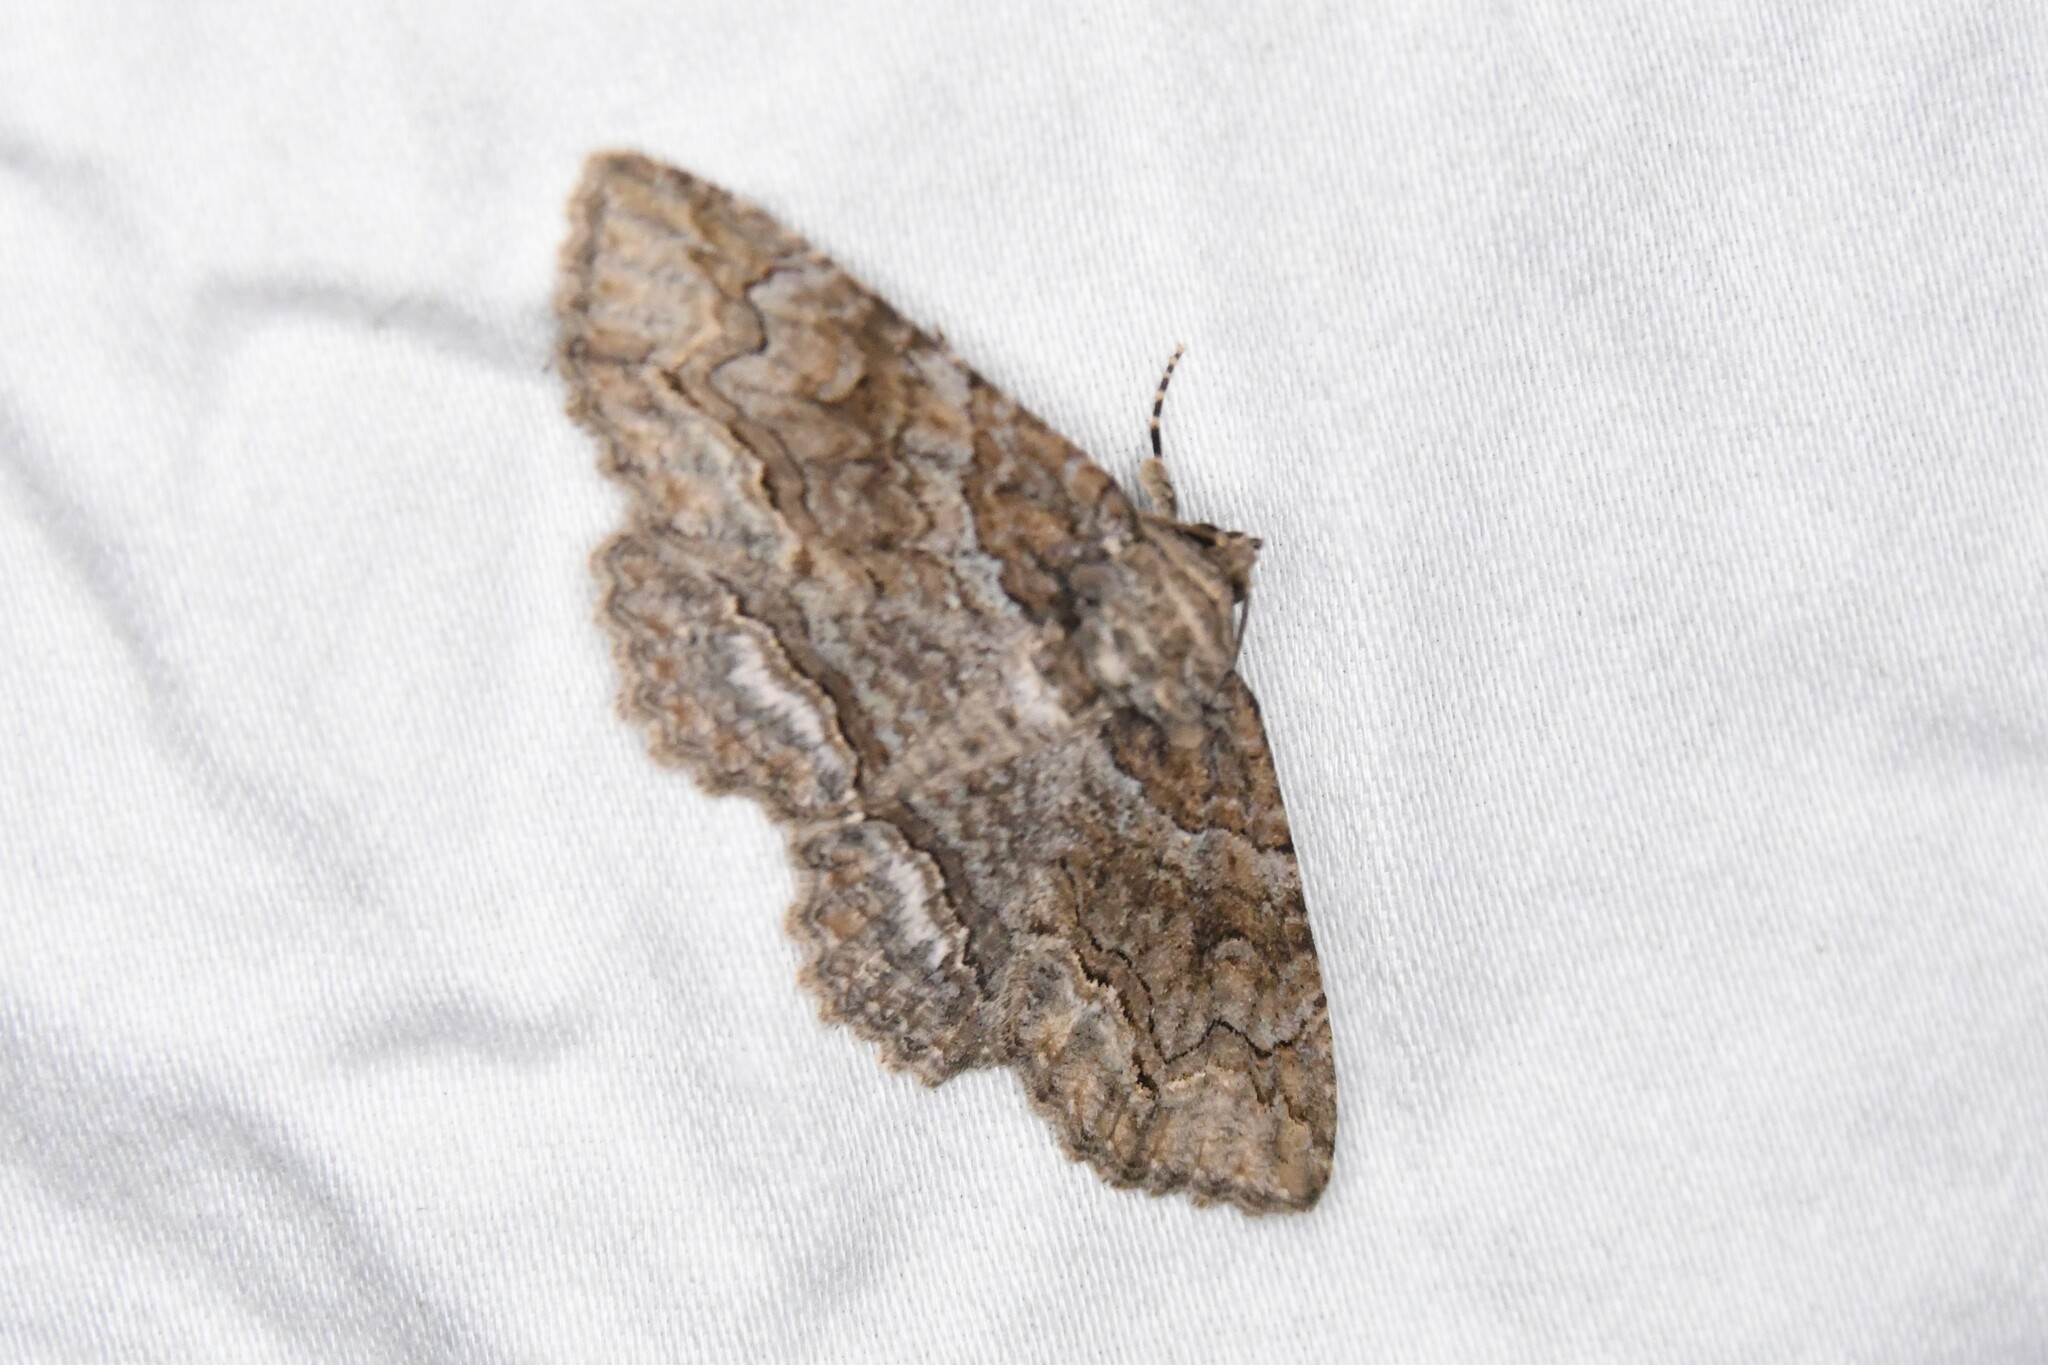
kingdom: Animalia
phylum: Arthropoda
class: Insecta
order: Lepidoptera
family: Erebidae
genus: Zale
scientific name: Zale galbanata
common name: Maple zale
